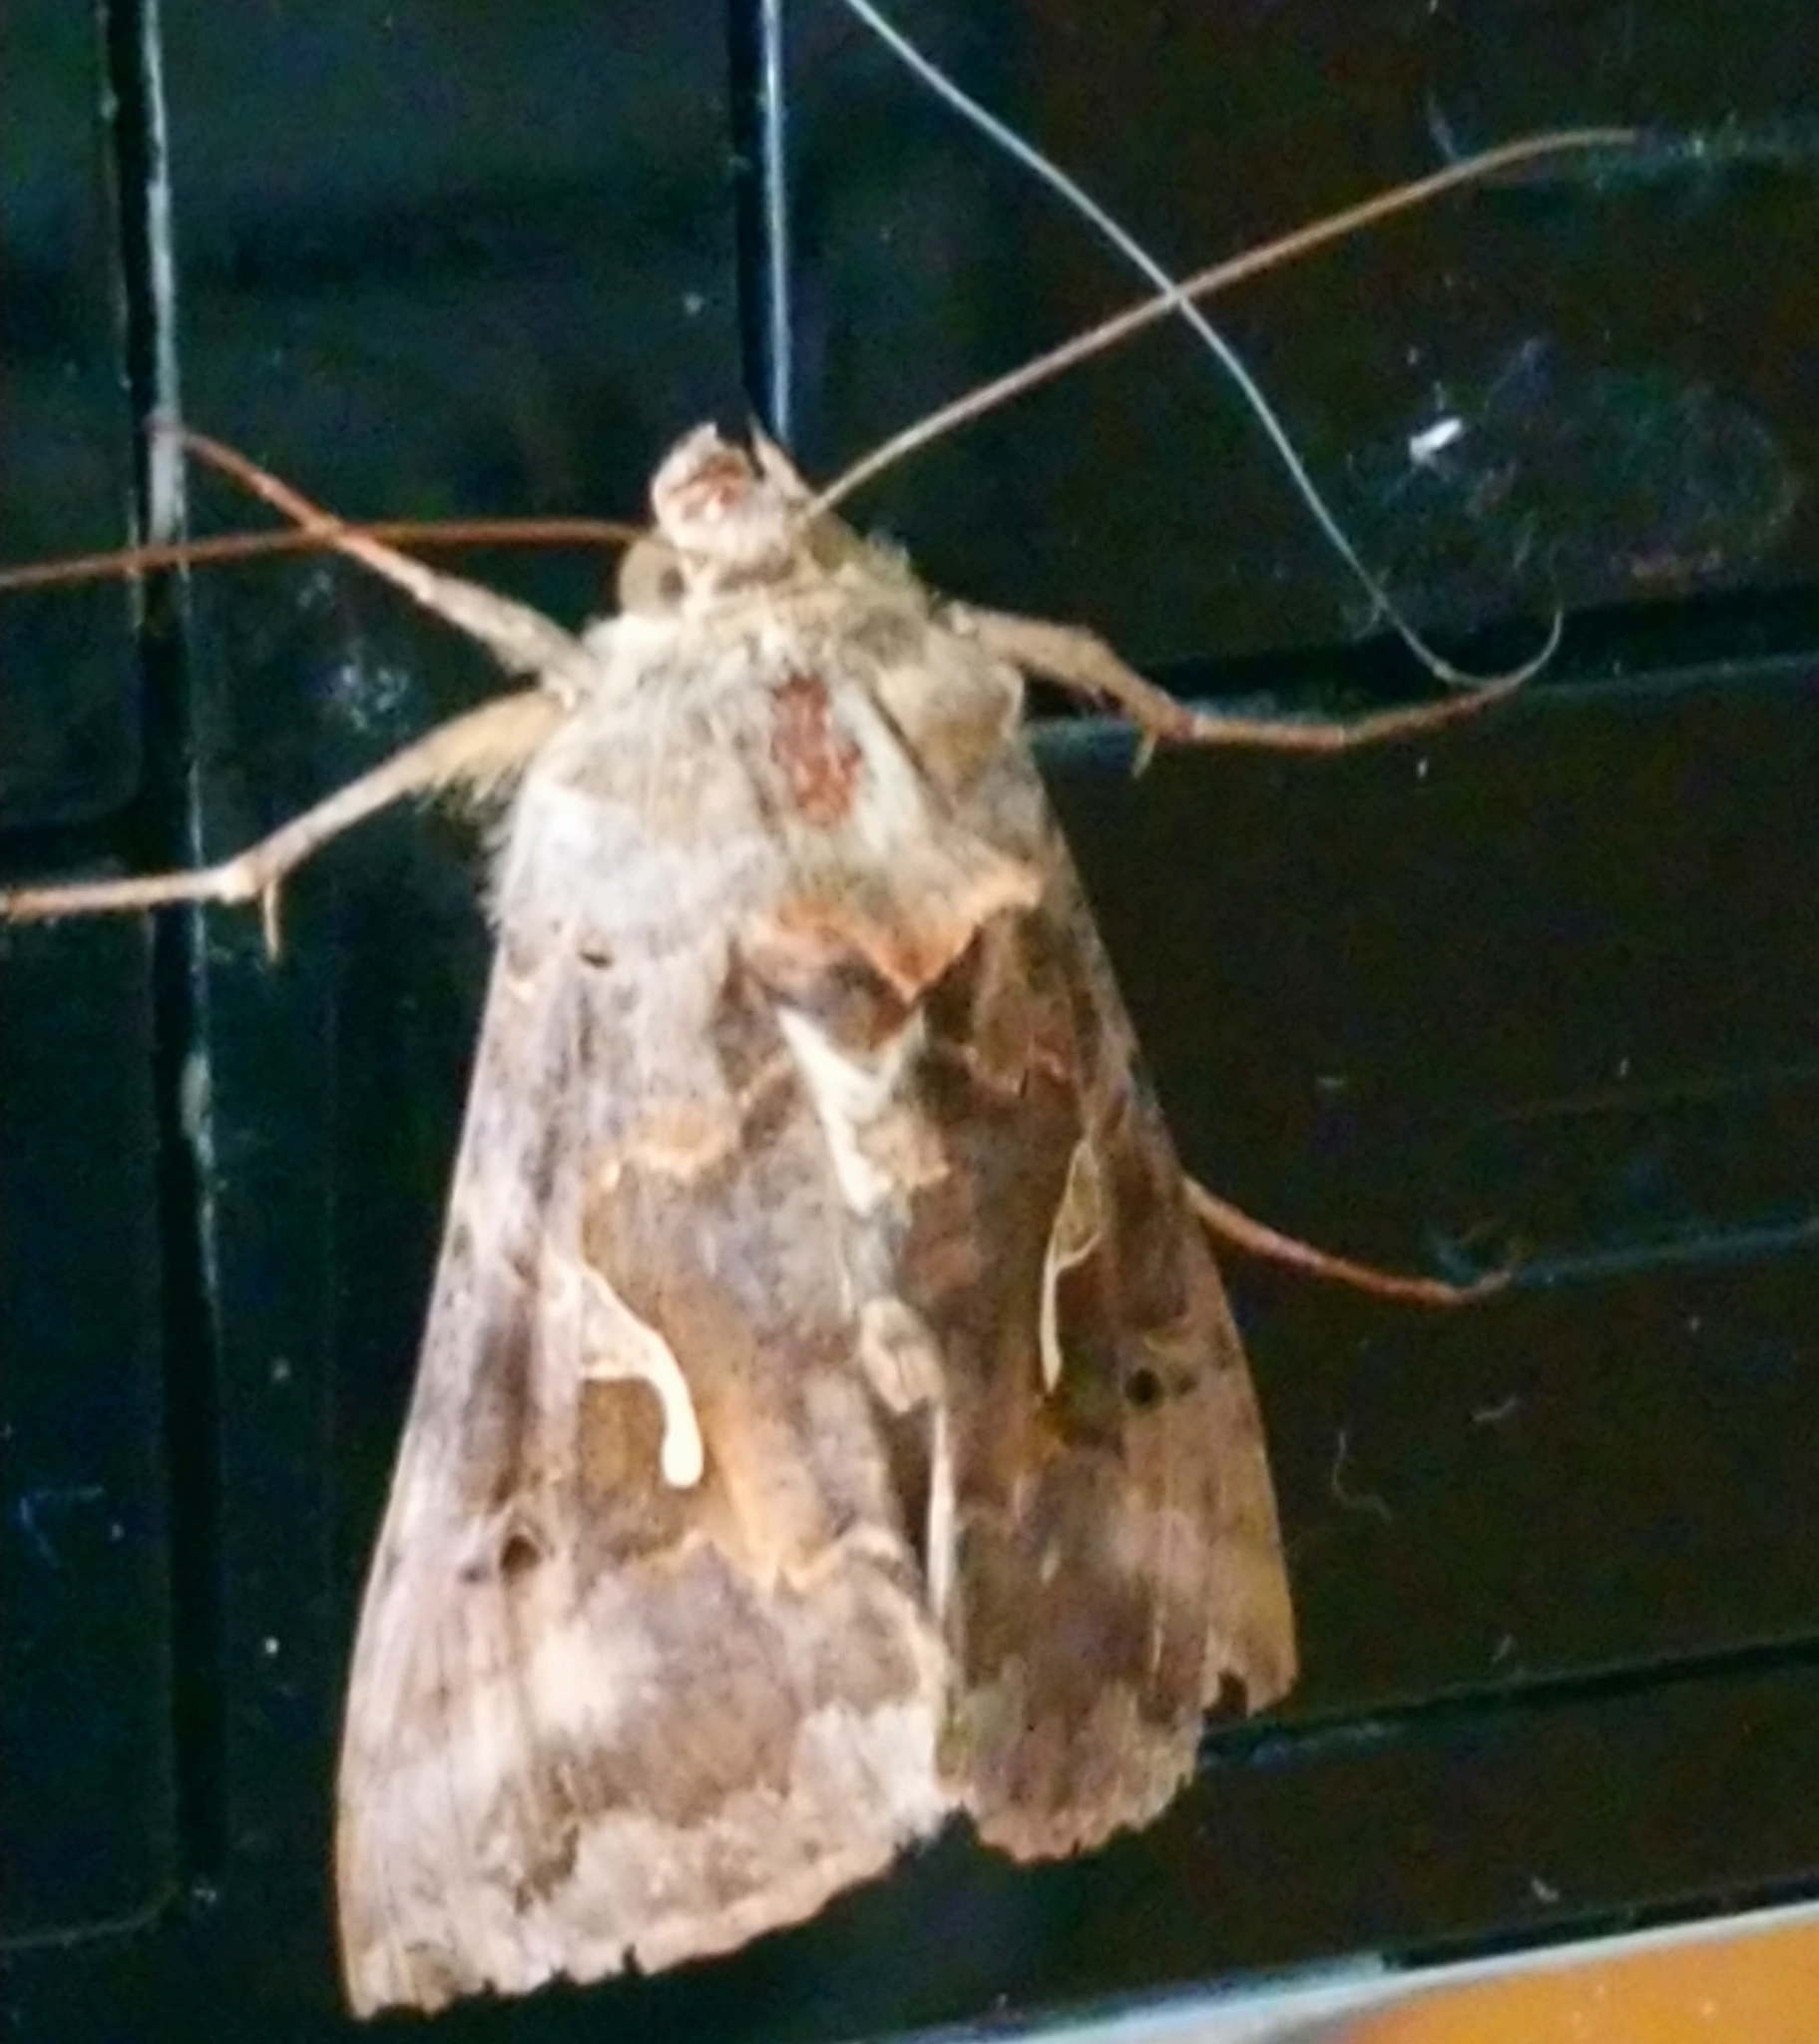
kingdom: Animalia
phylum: Arthropoda
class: Insecta
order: Lepidoptera
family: Noctuidae
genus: Autographa
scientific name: Autographa gamma
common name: Silver y
